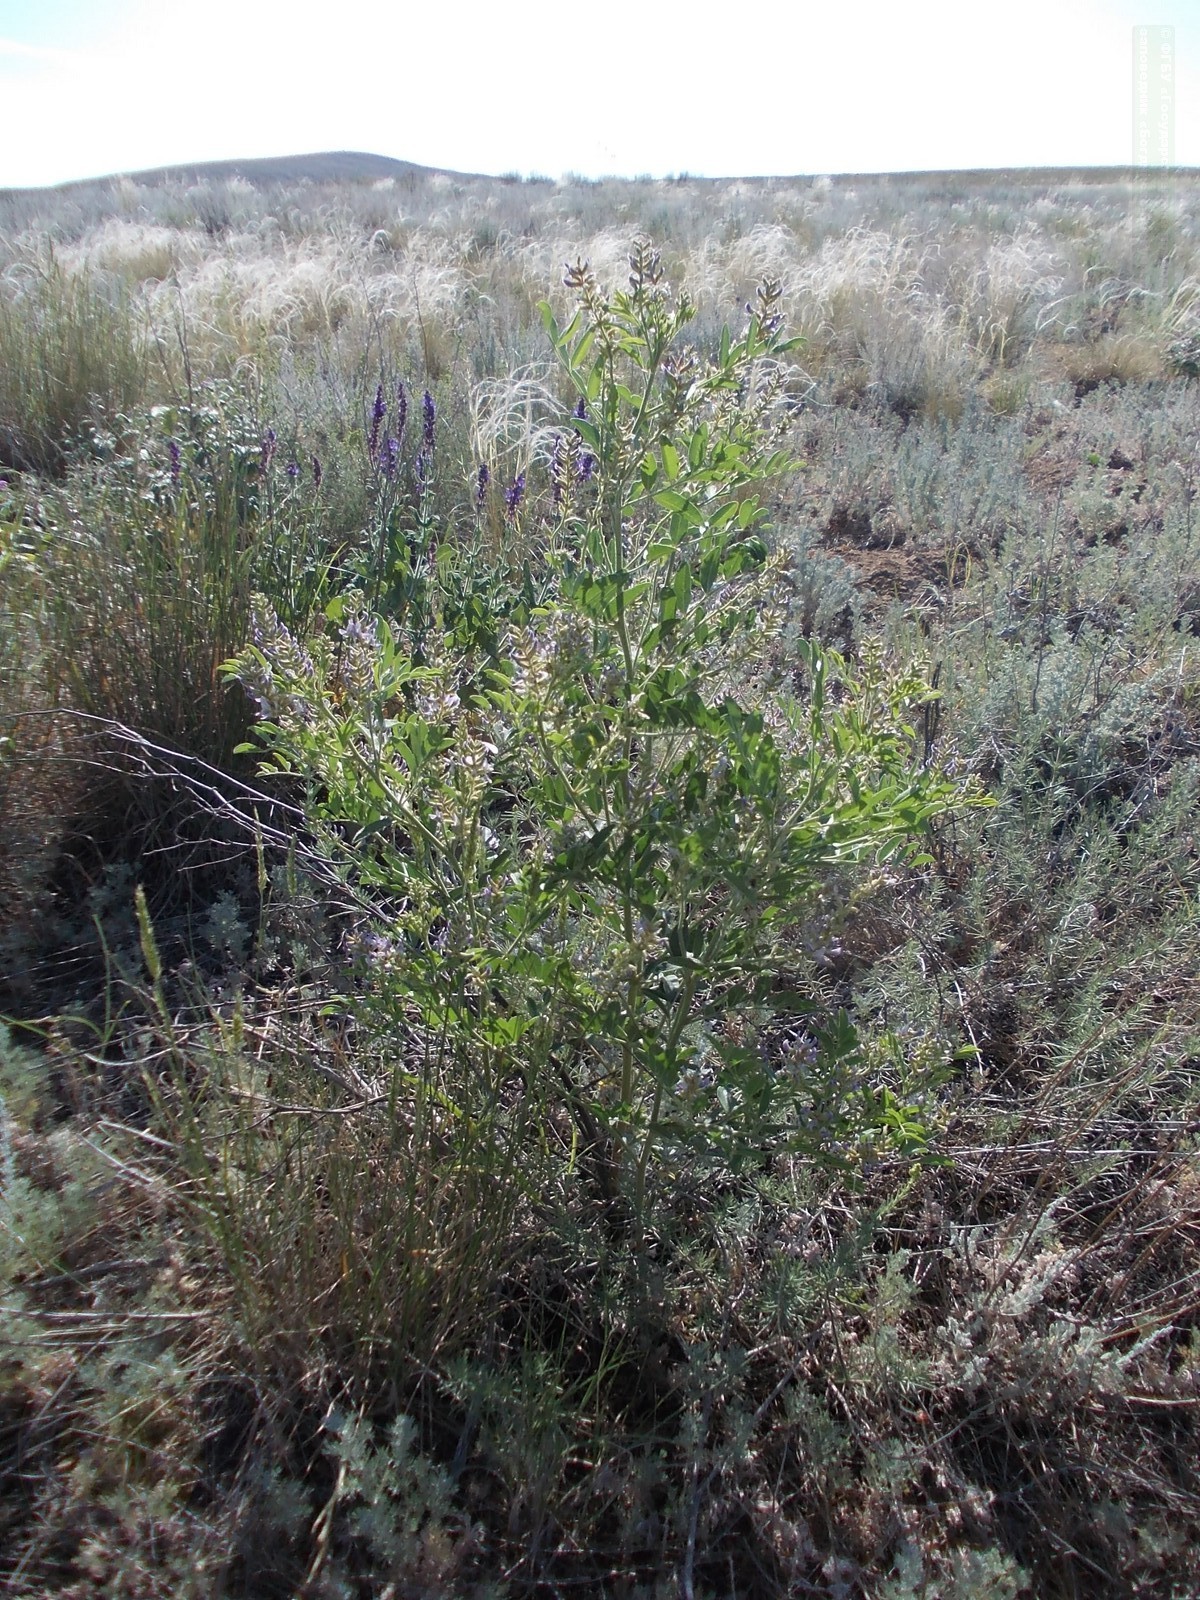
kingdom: Plantae
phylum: Tracheophyta
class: Magnoliopsida
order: Fabales
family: Fabaceae
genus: Glycyrrhiza
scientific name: Glycyrrhiza glabra
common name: Liquorice
